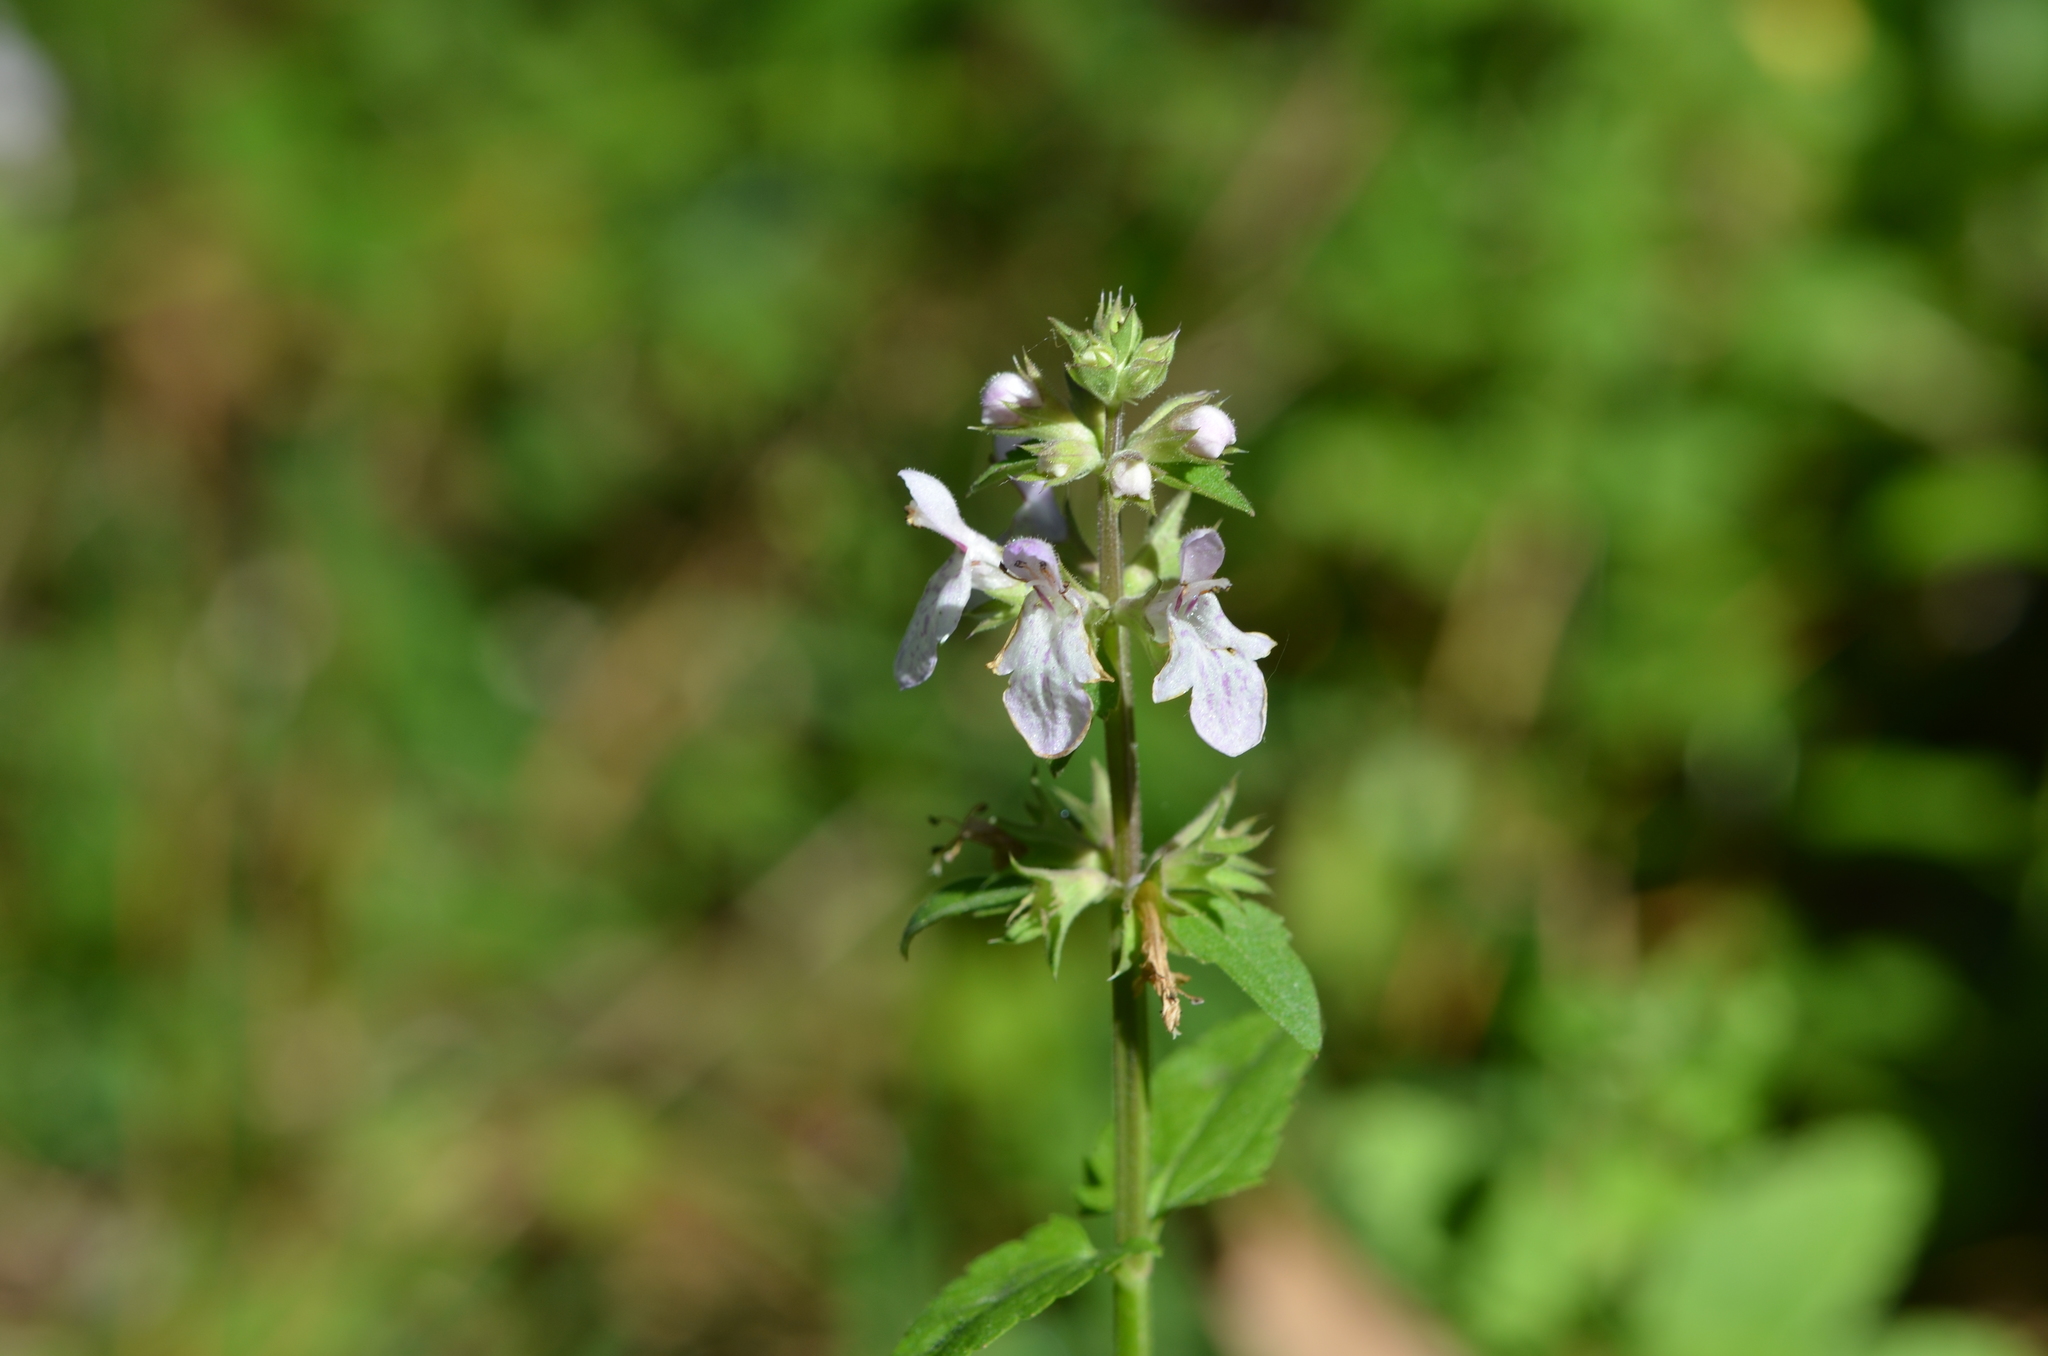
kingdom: Plantae
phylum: Tracheophyta
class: Magnoliopsida
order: Lamiales
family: Lamiaceae
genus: Stachys
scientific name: Stachys floridana
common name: Florida betony
